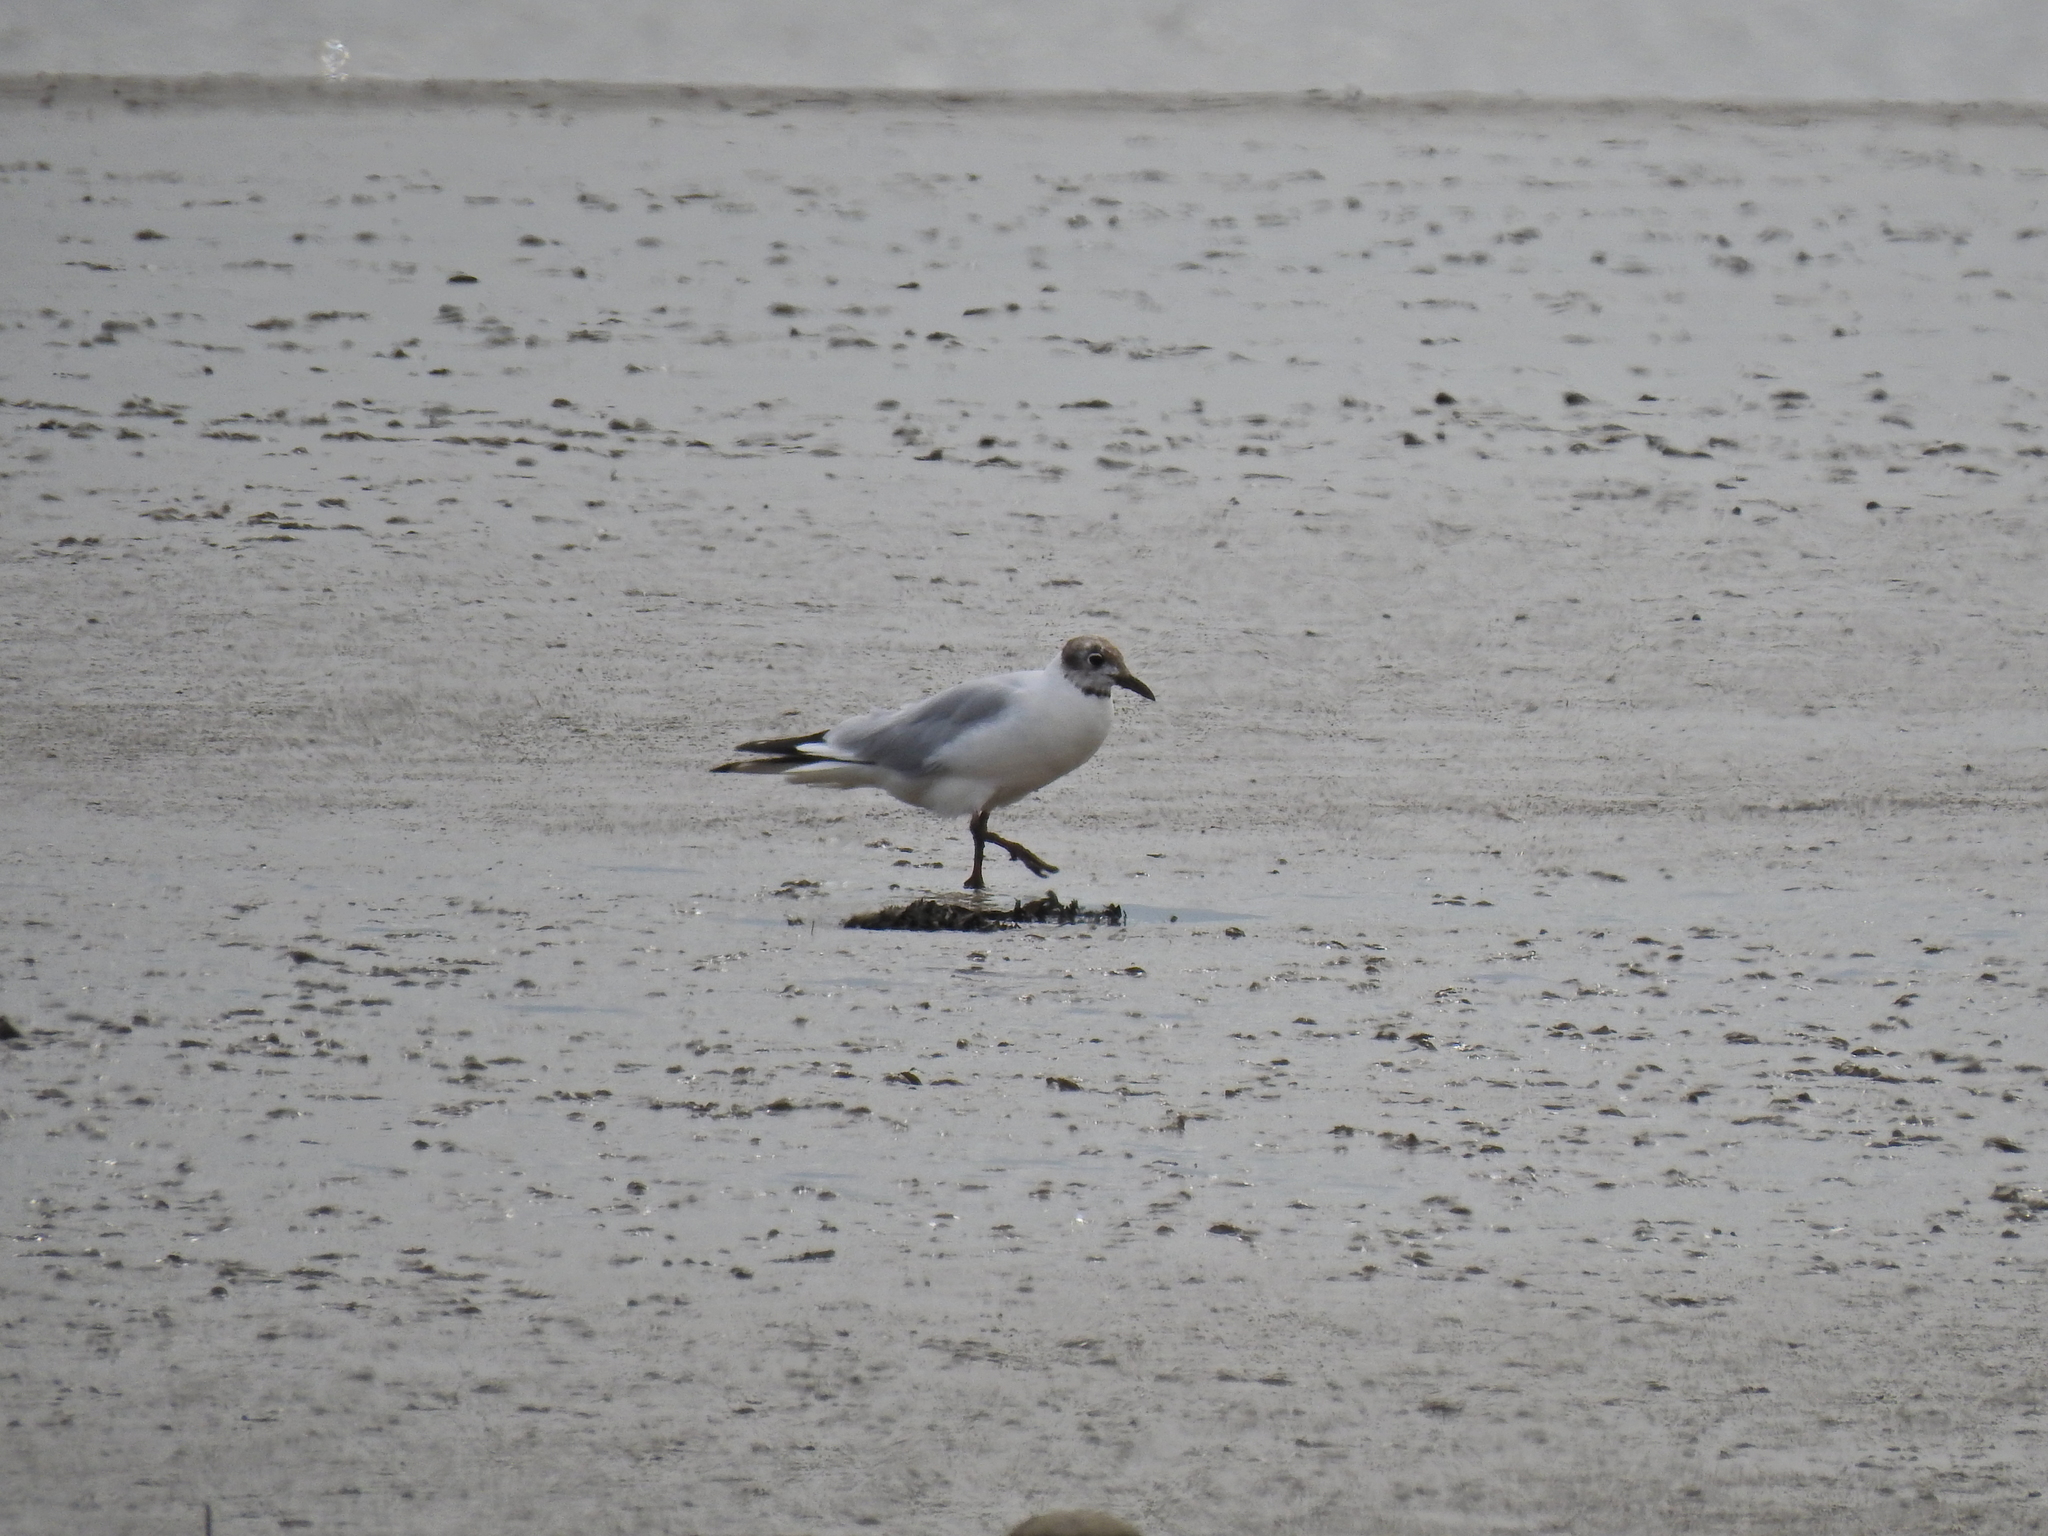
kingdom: Animalia
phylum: Chordata
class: Aves
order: Charadriiformes
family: Laridae
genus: Chroicocephalus
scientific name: Chroicocephalus ridibundus
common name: Black-headed gull
